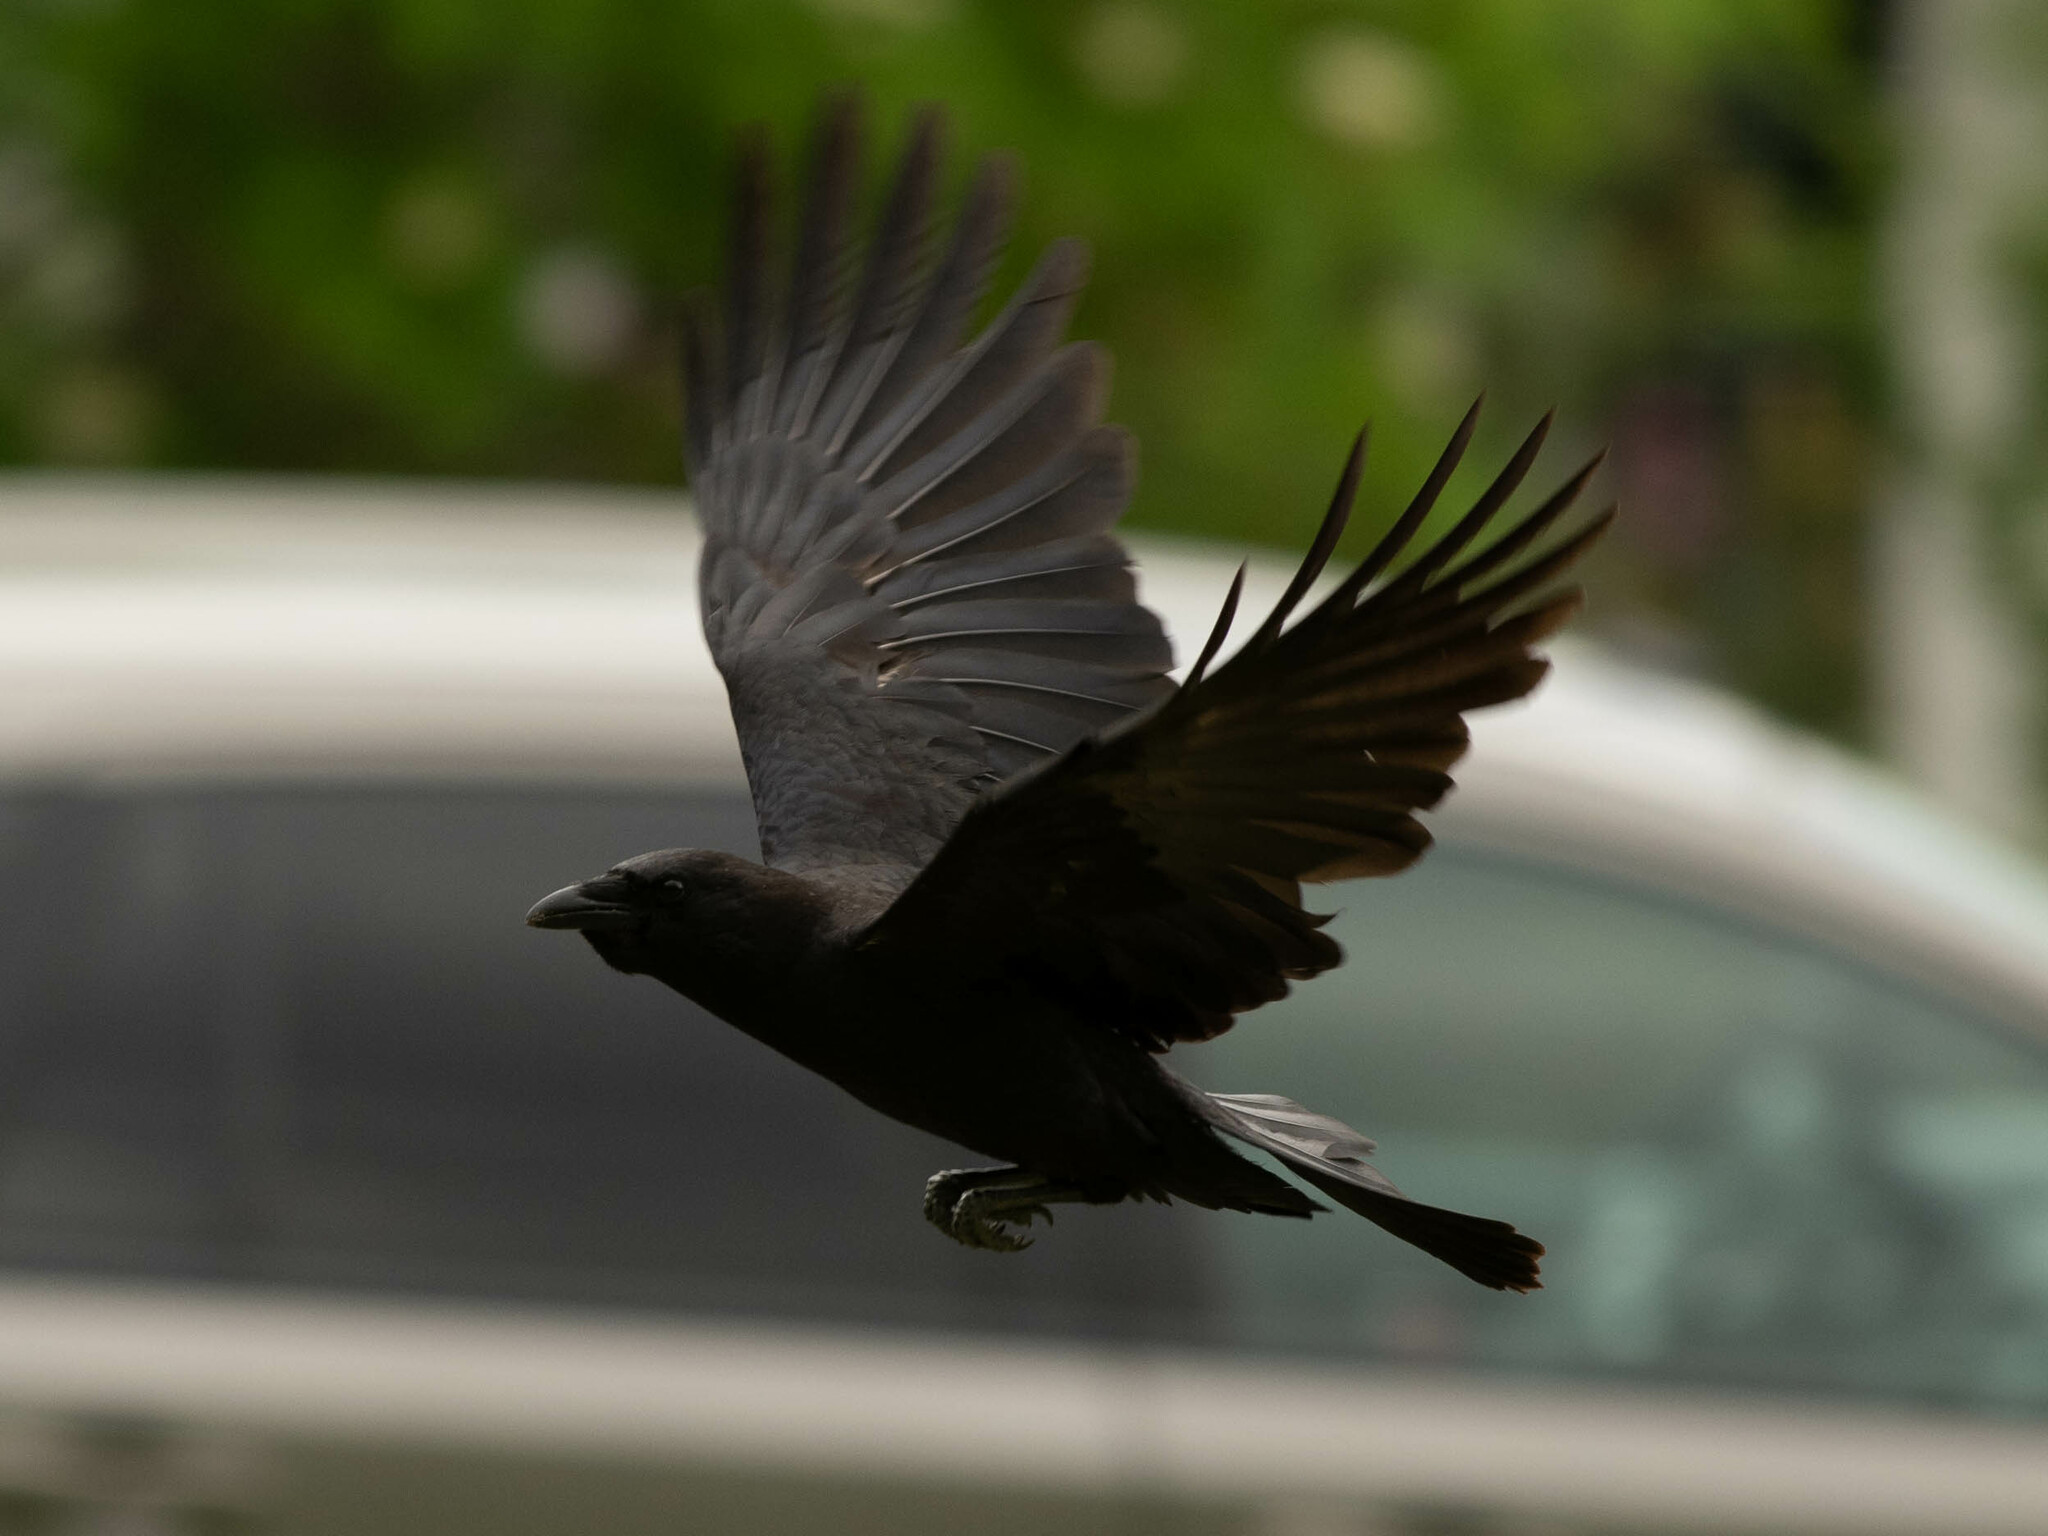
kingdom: Animalia
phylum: Chordata
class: Aves
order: Passeriformes
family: Corvidae
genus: Corvus
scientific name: Corvus brachyrhynchos
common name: American crow
